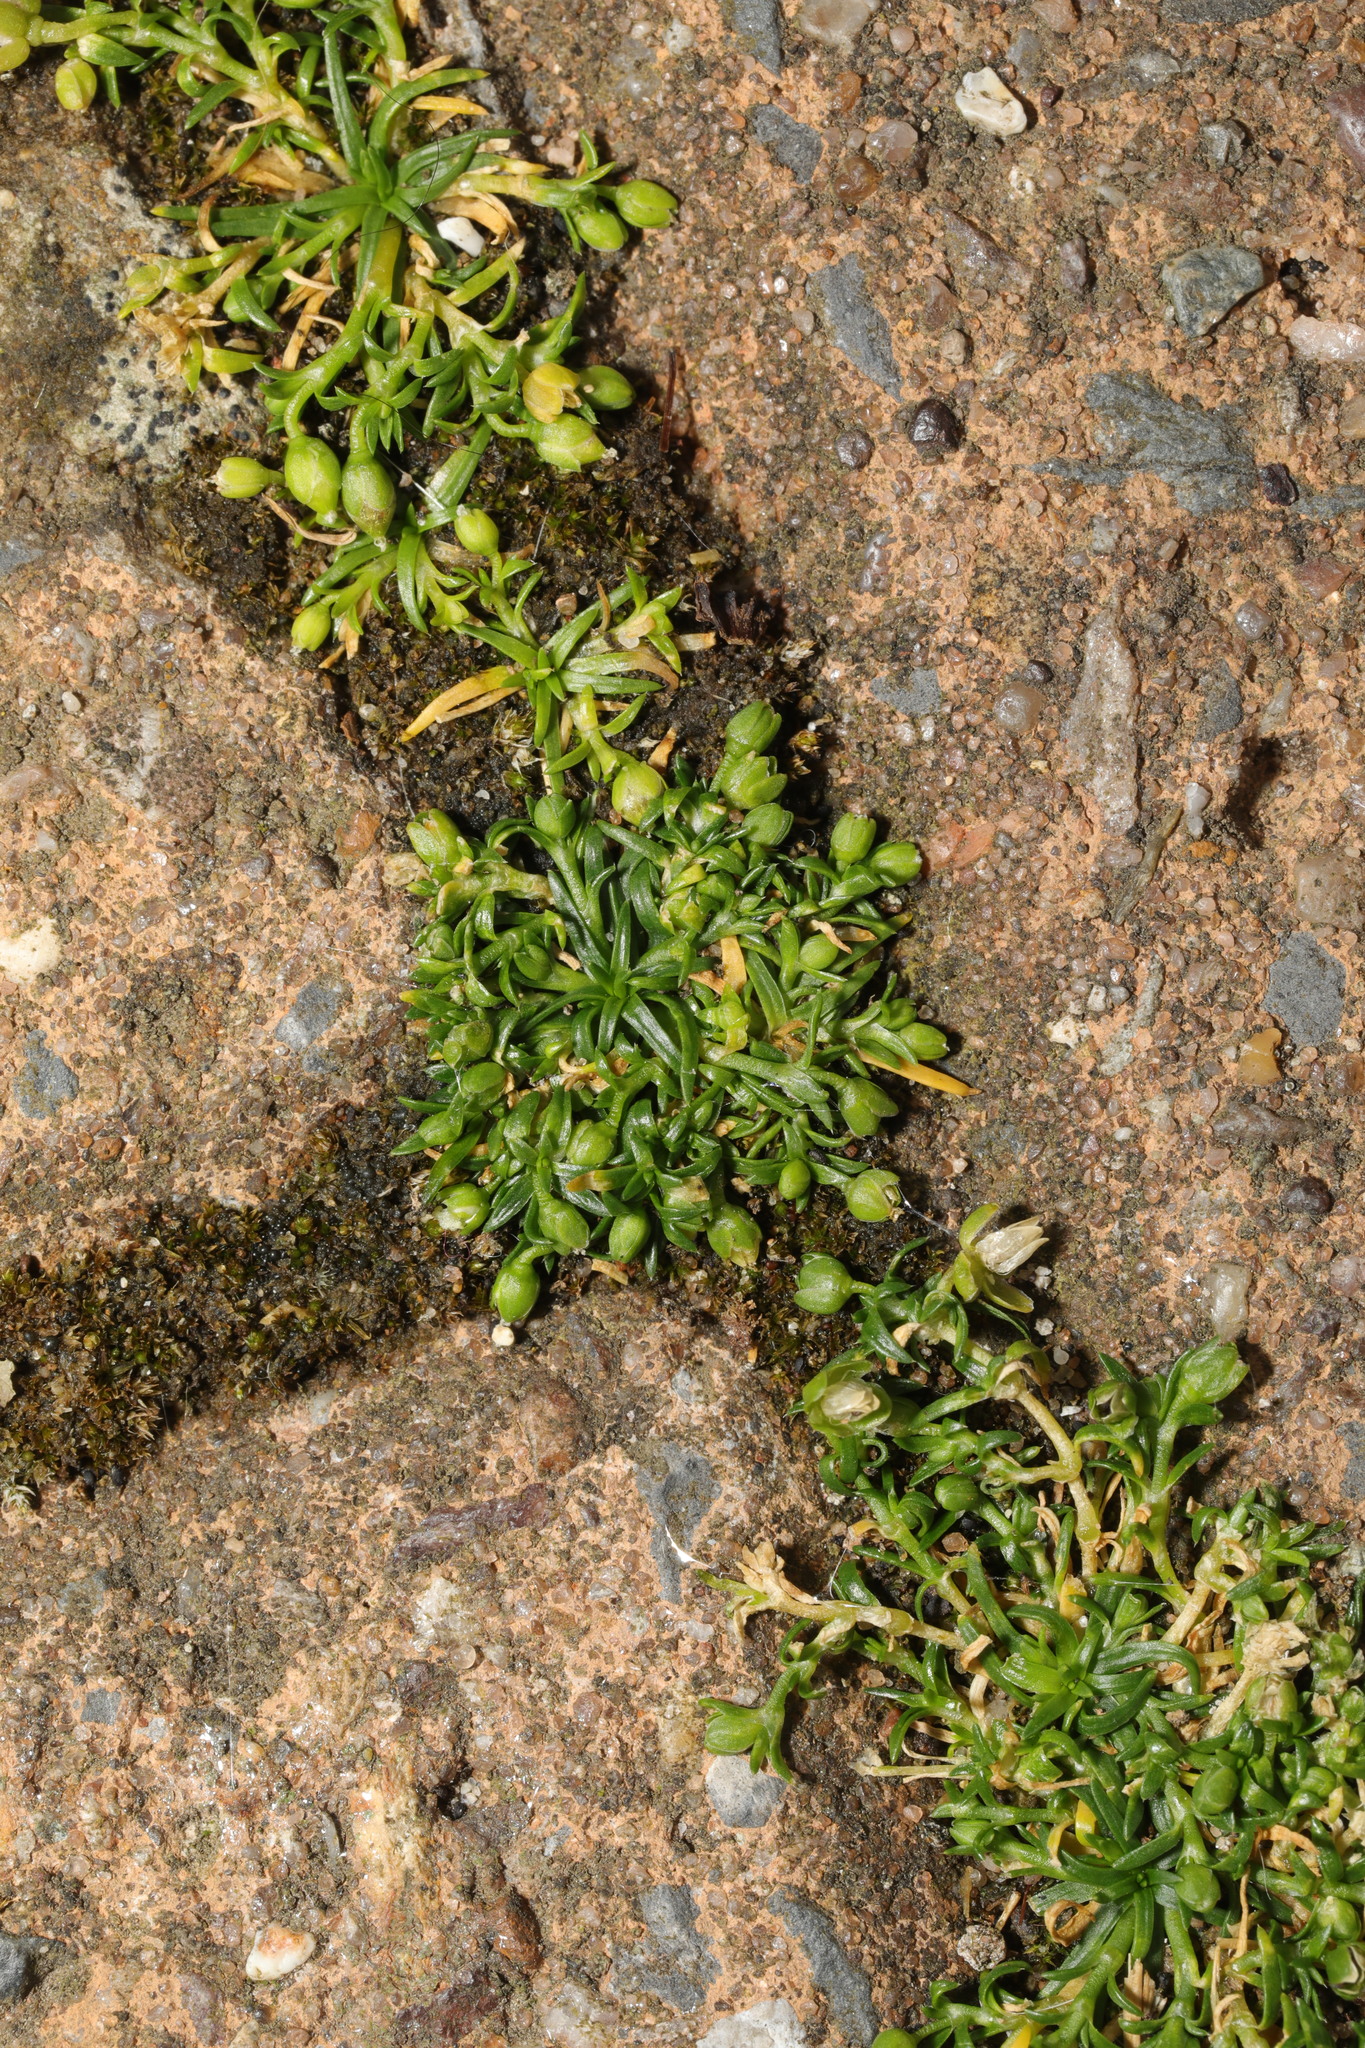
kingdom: Plantae
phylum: Tracheophyta
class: Magnoliopsida
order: Caryophyllales
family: Caryophyllaceae
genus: Sagina
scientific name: Sagina procumbens
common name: Procumbent pearlwort
